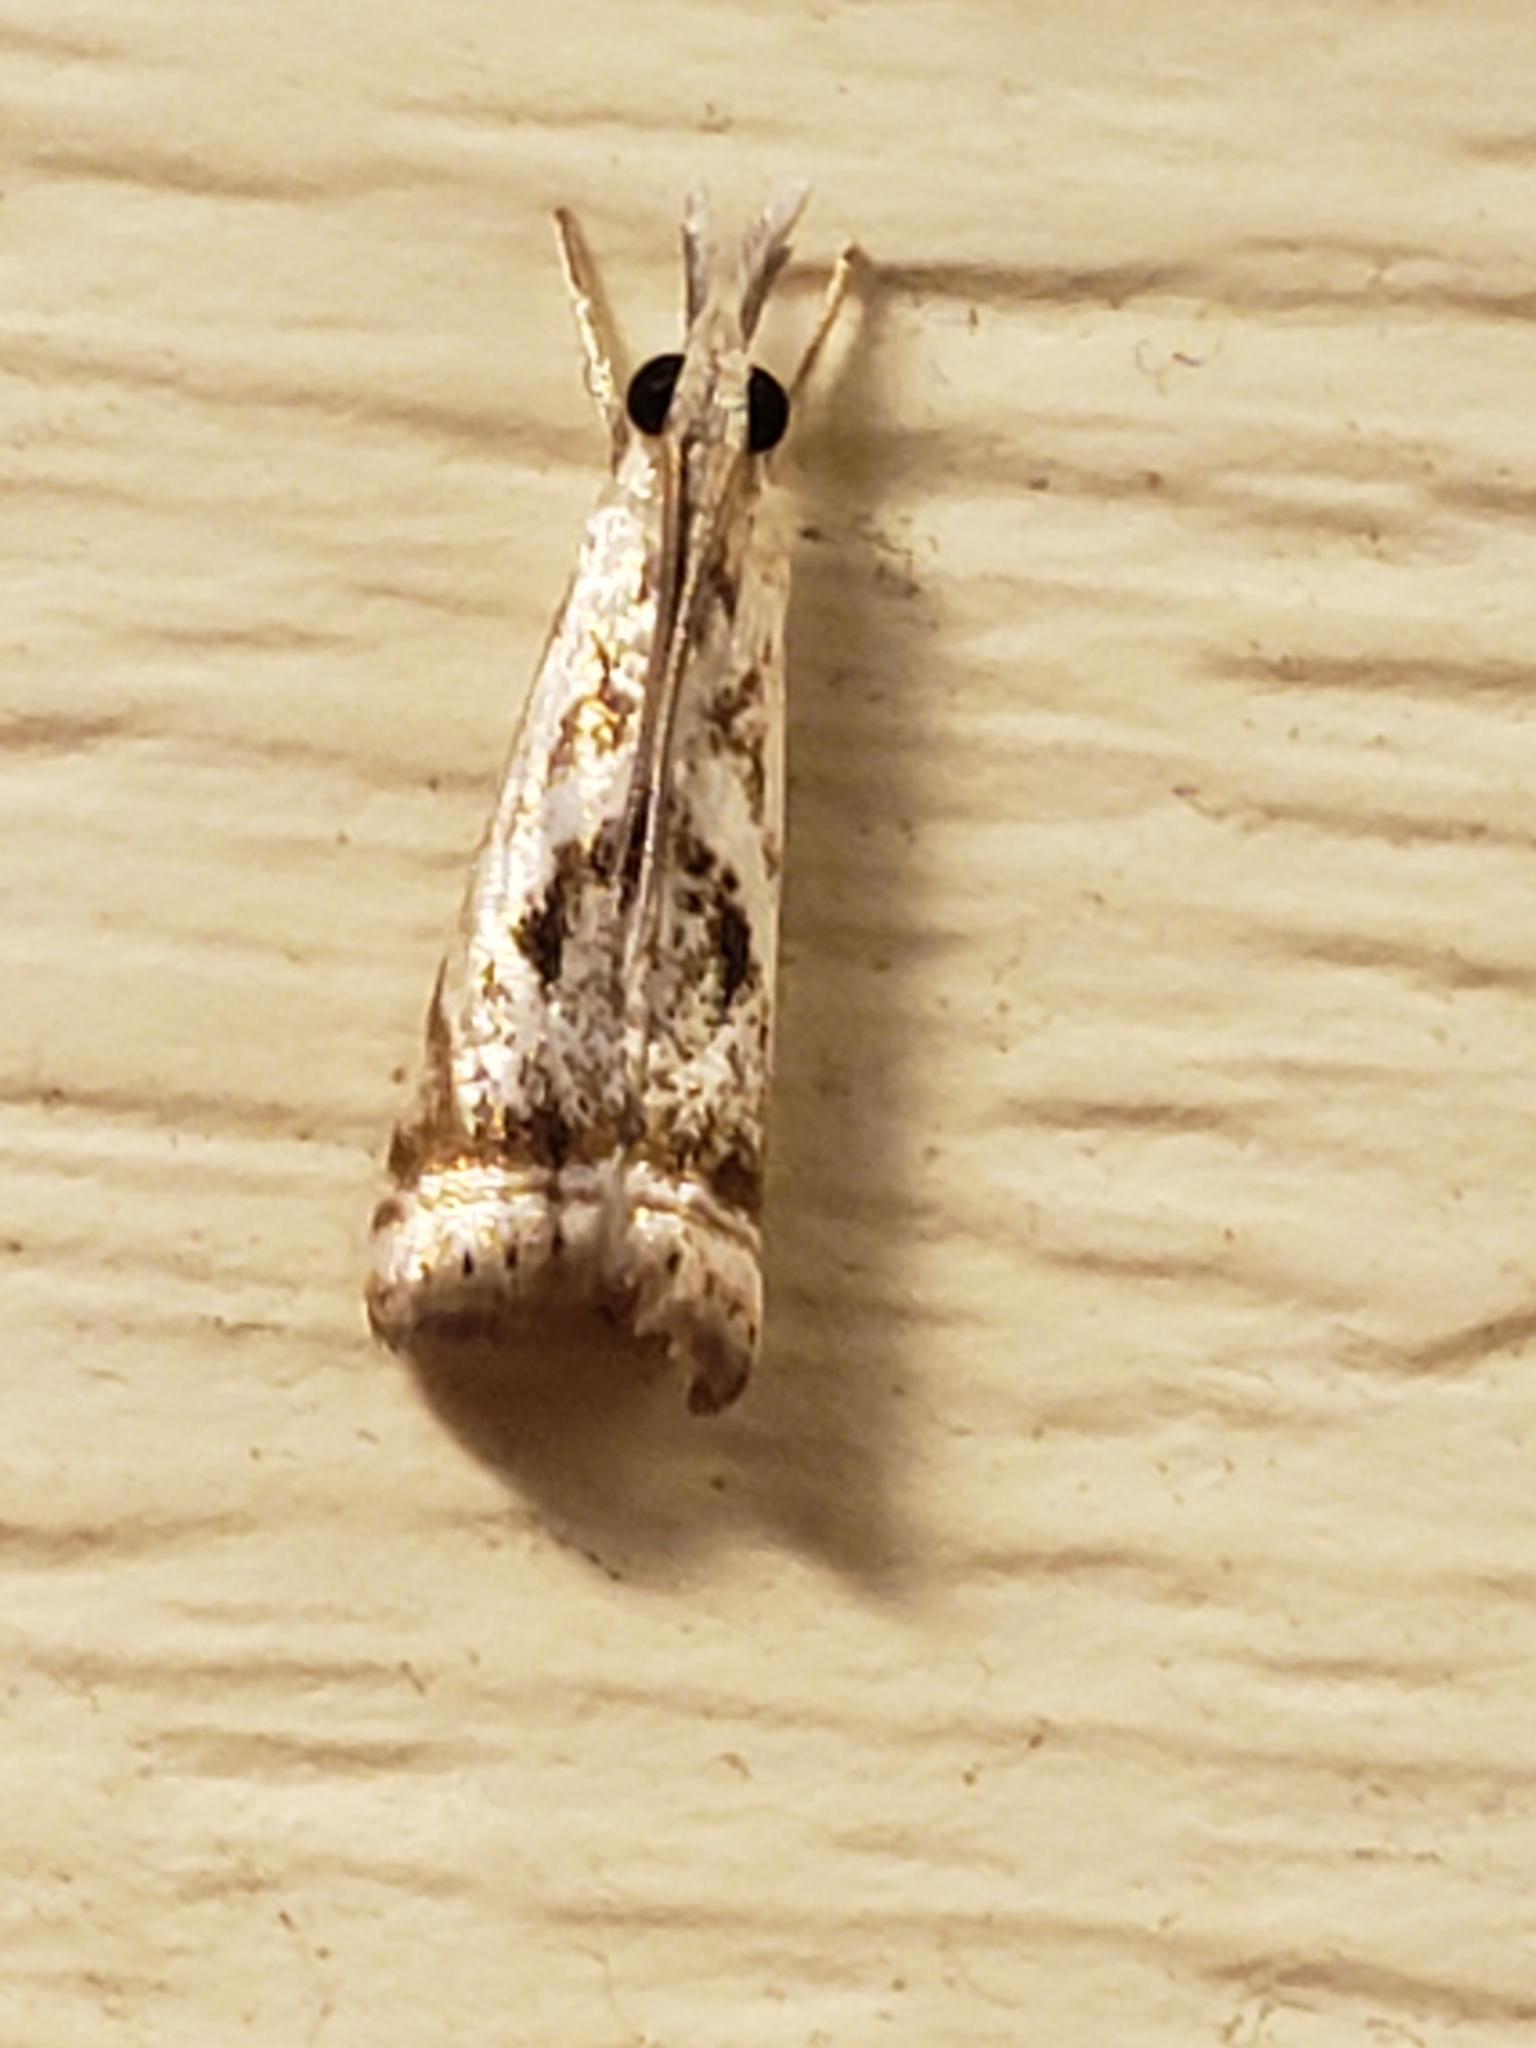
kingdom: Animalia
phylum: Arthropoda
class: Insecta
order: Lepidoptera
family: Crambidae
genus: Microcrambus
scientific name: Microcrambus elegans
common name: Elegant grass-veneer
